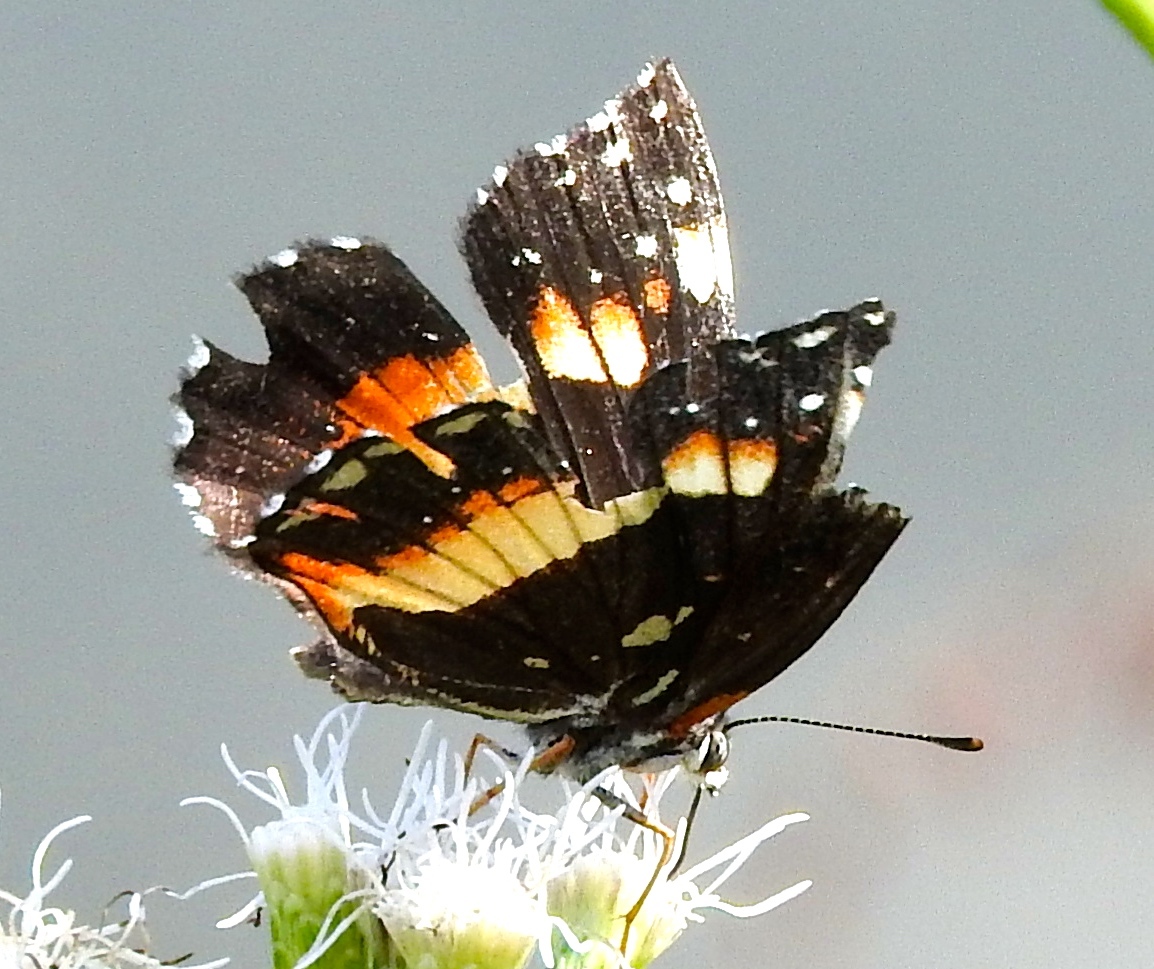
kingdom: Animalia
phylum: Arthropoda
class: Insecta
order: Lepidoptera
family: Nymphalidae
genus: Chlosyne
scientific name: Chlosyne lacinia
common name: Bordered patch
